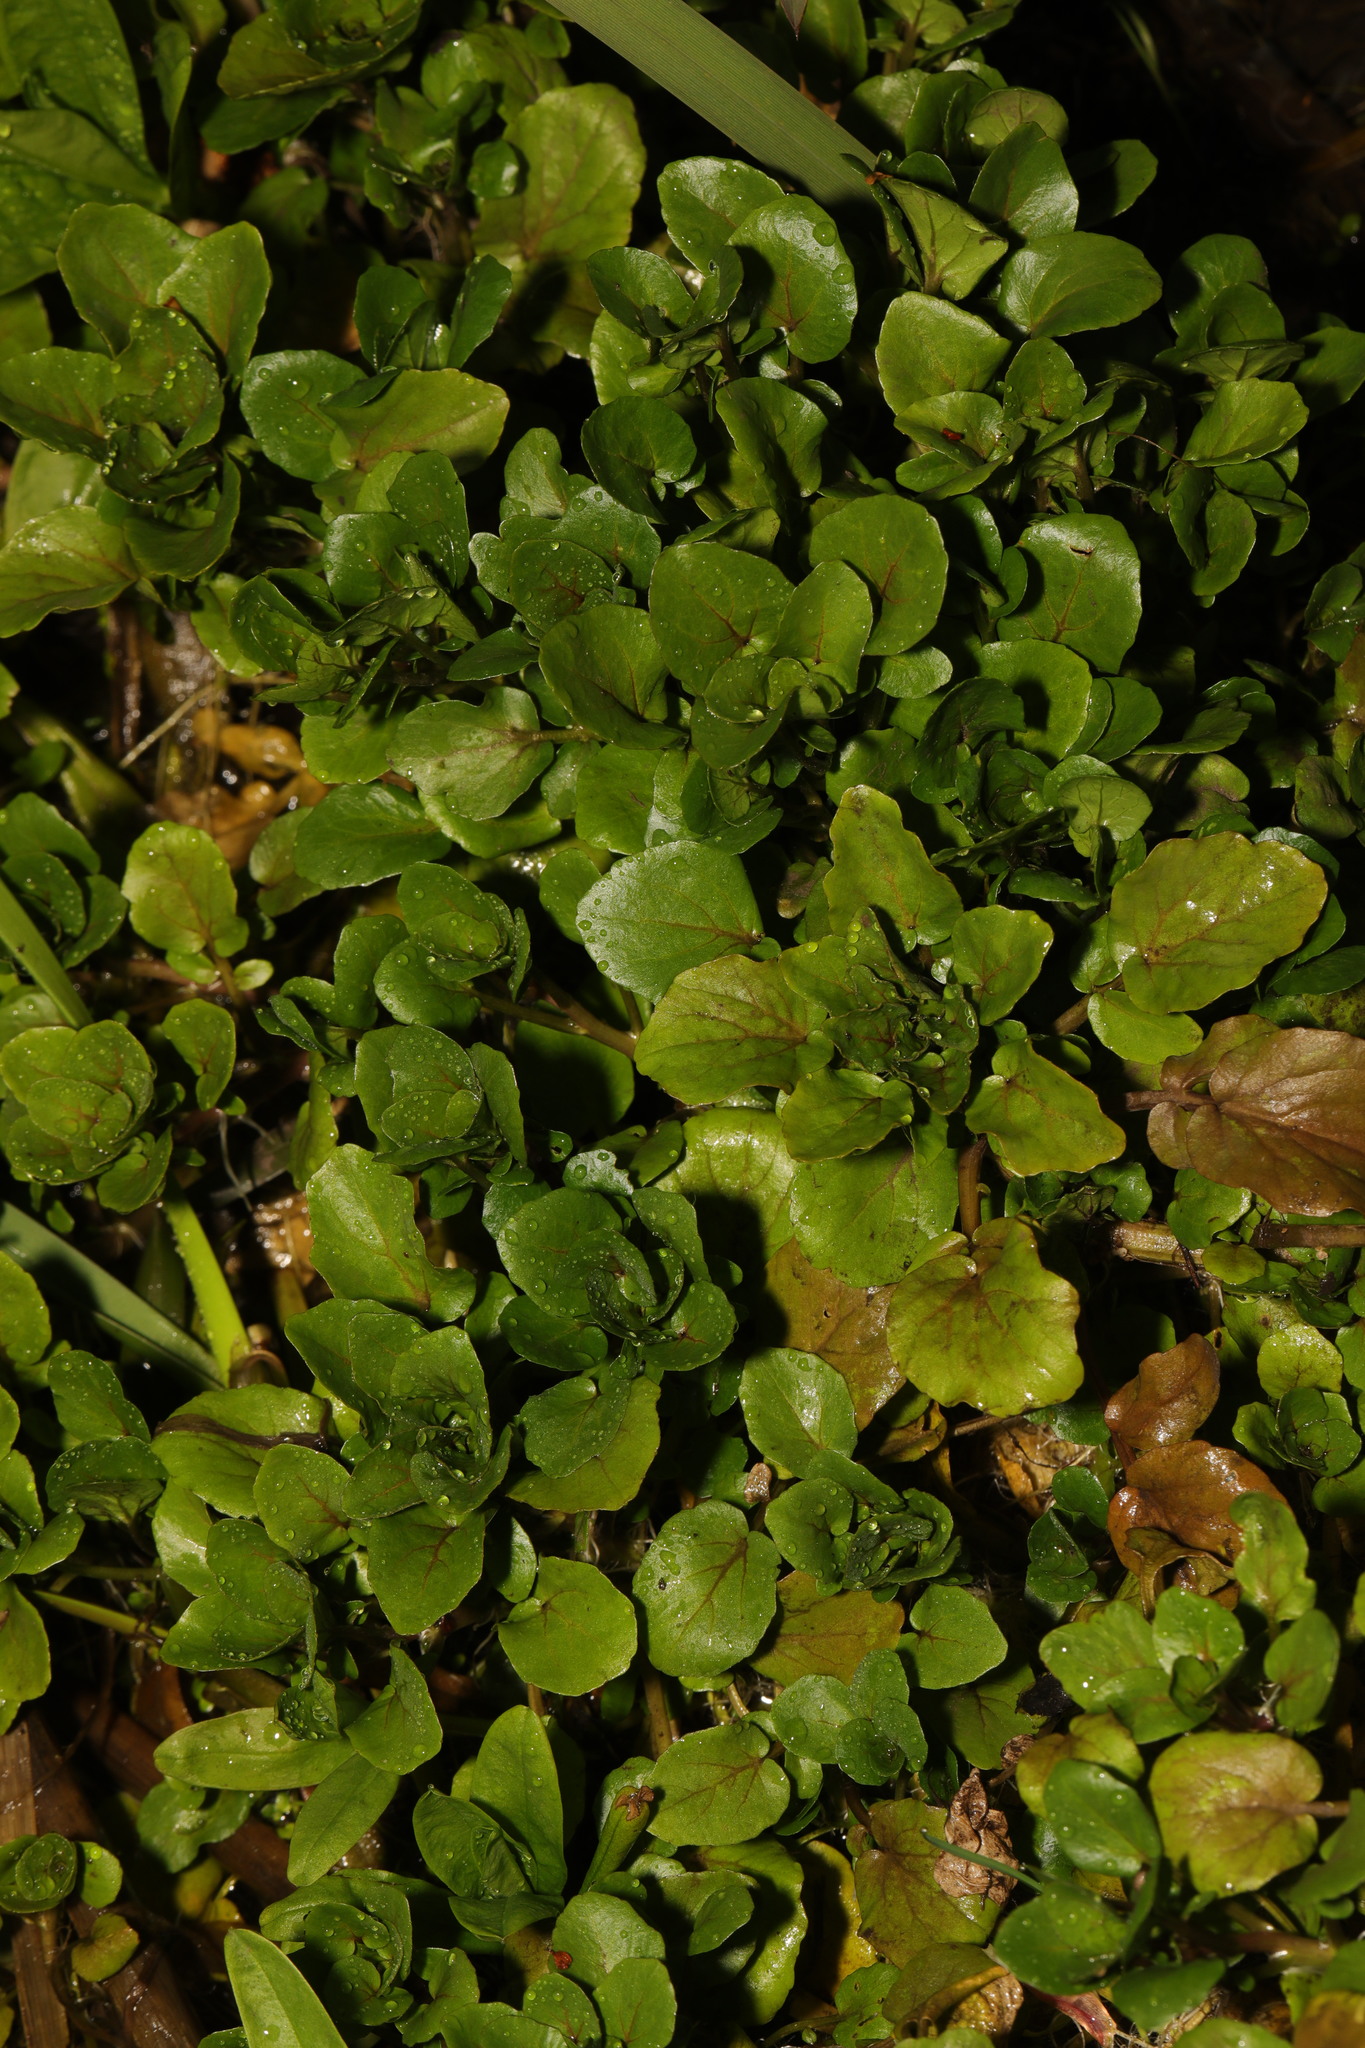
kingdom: Plantae
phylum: Tracheophyta
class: Magnoliopsida
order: Brassicales
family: Brassicaceae
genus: Nasturtium
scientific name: Nasturtium officinale
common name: Watercress
